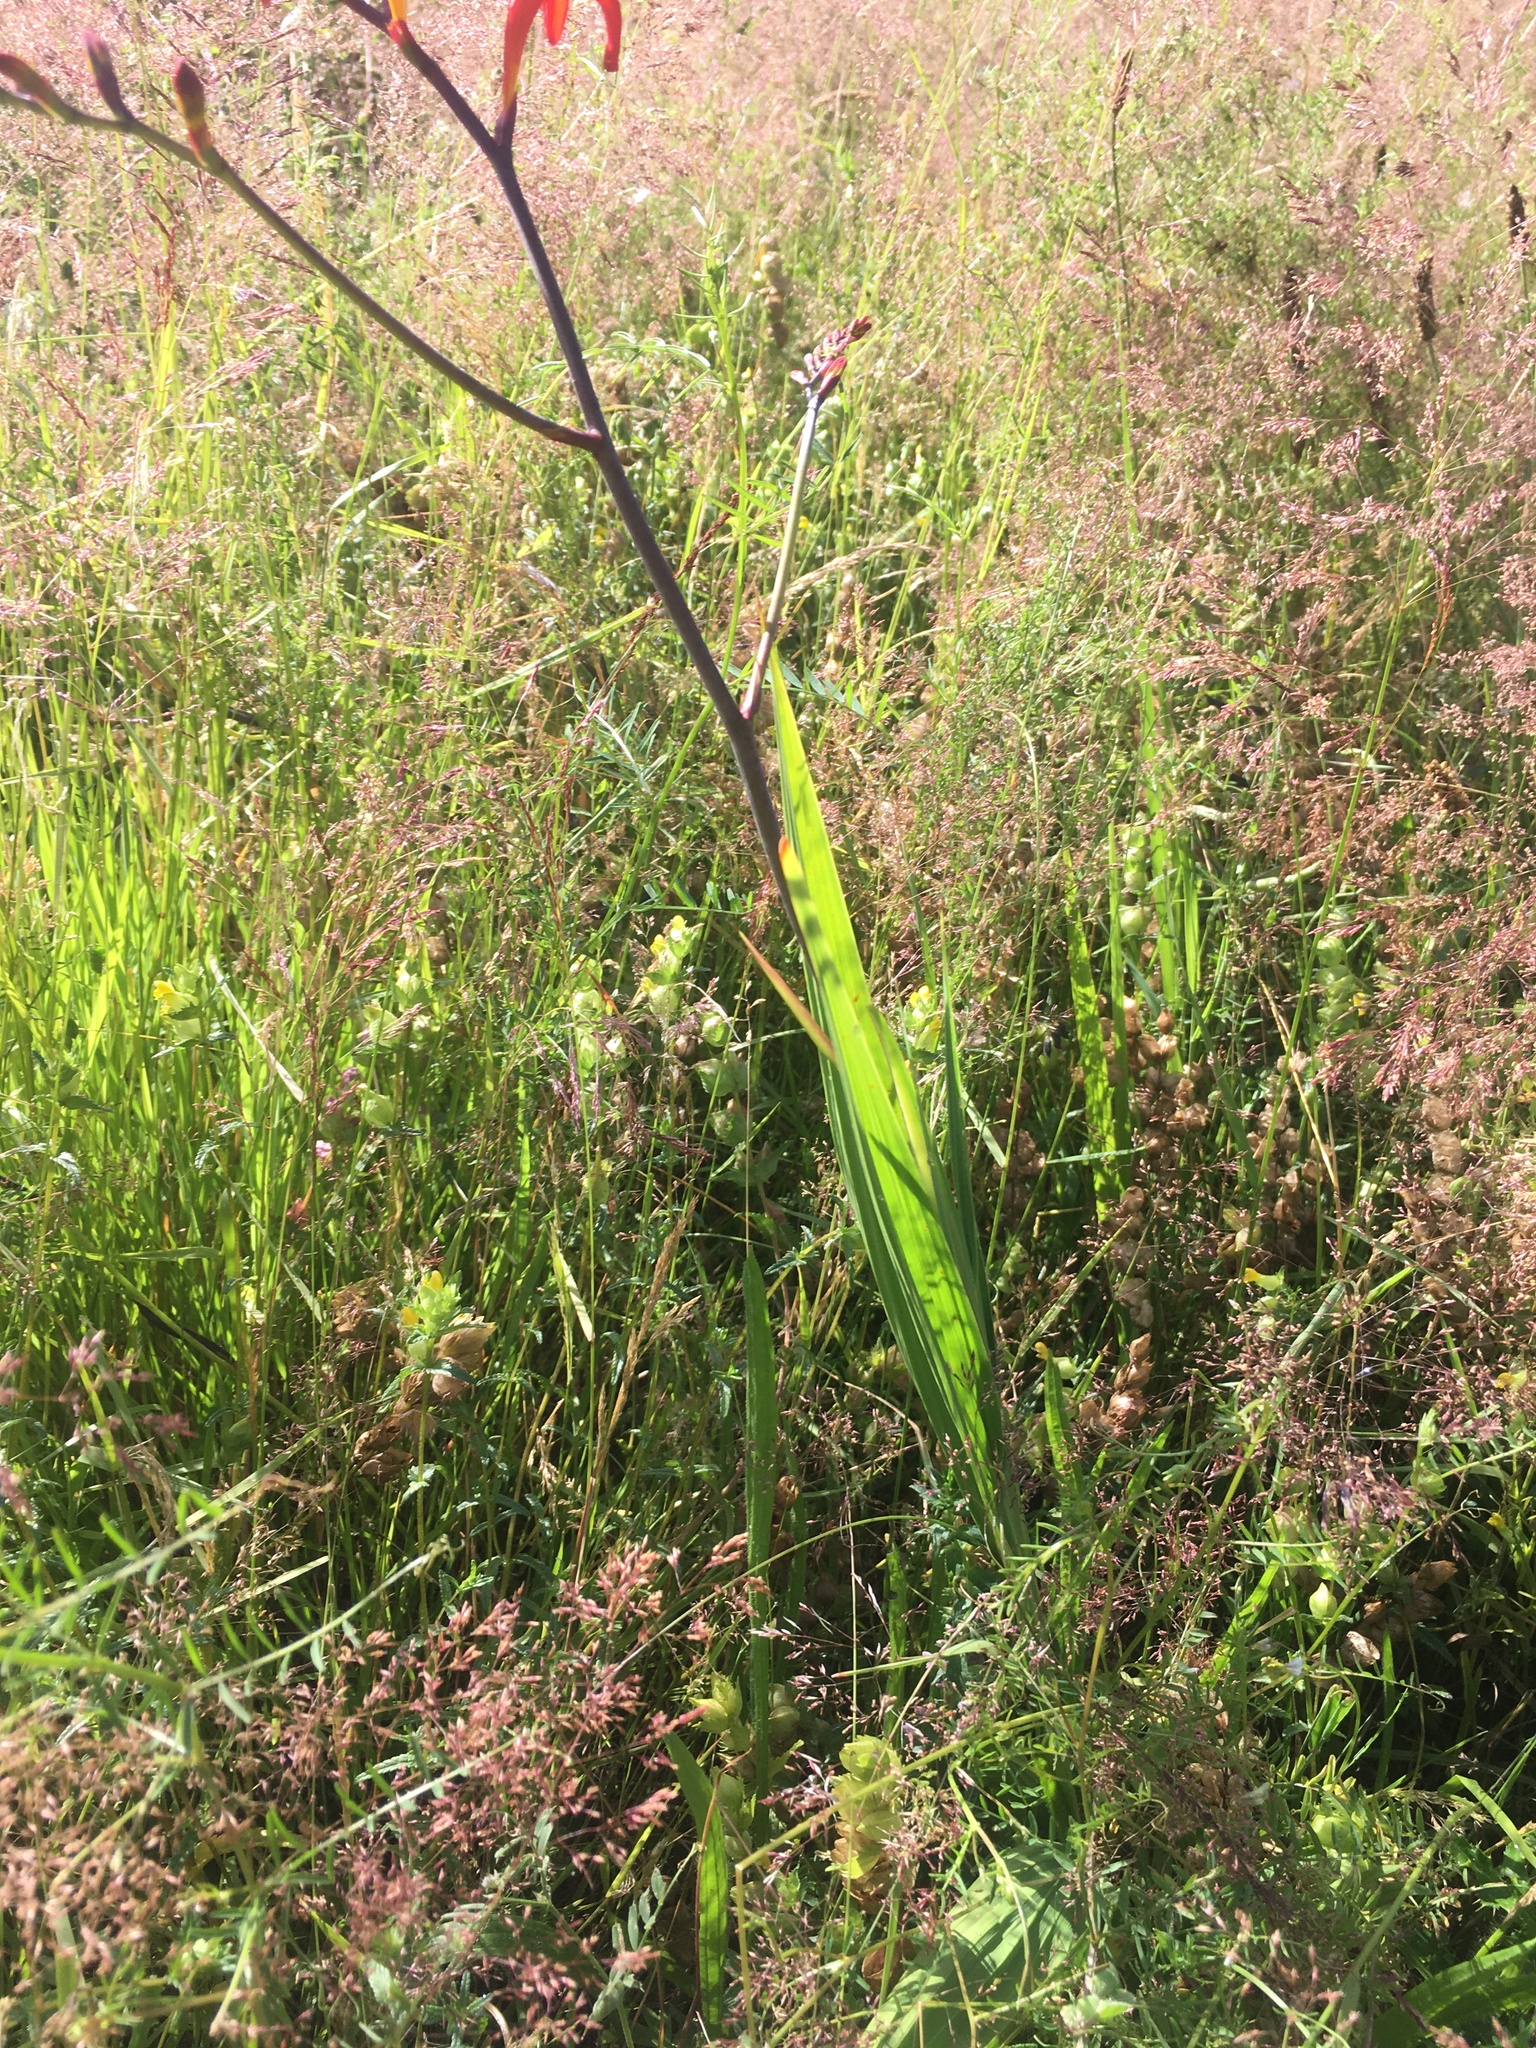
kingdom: Plantae
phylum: Tracheophyta
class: Liliopsida
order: Asparagales
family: Iridaceae
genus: Crocosmia
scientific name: Crocosmia
